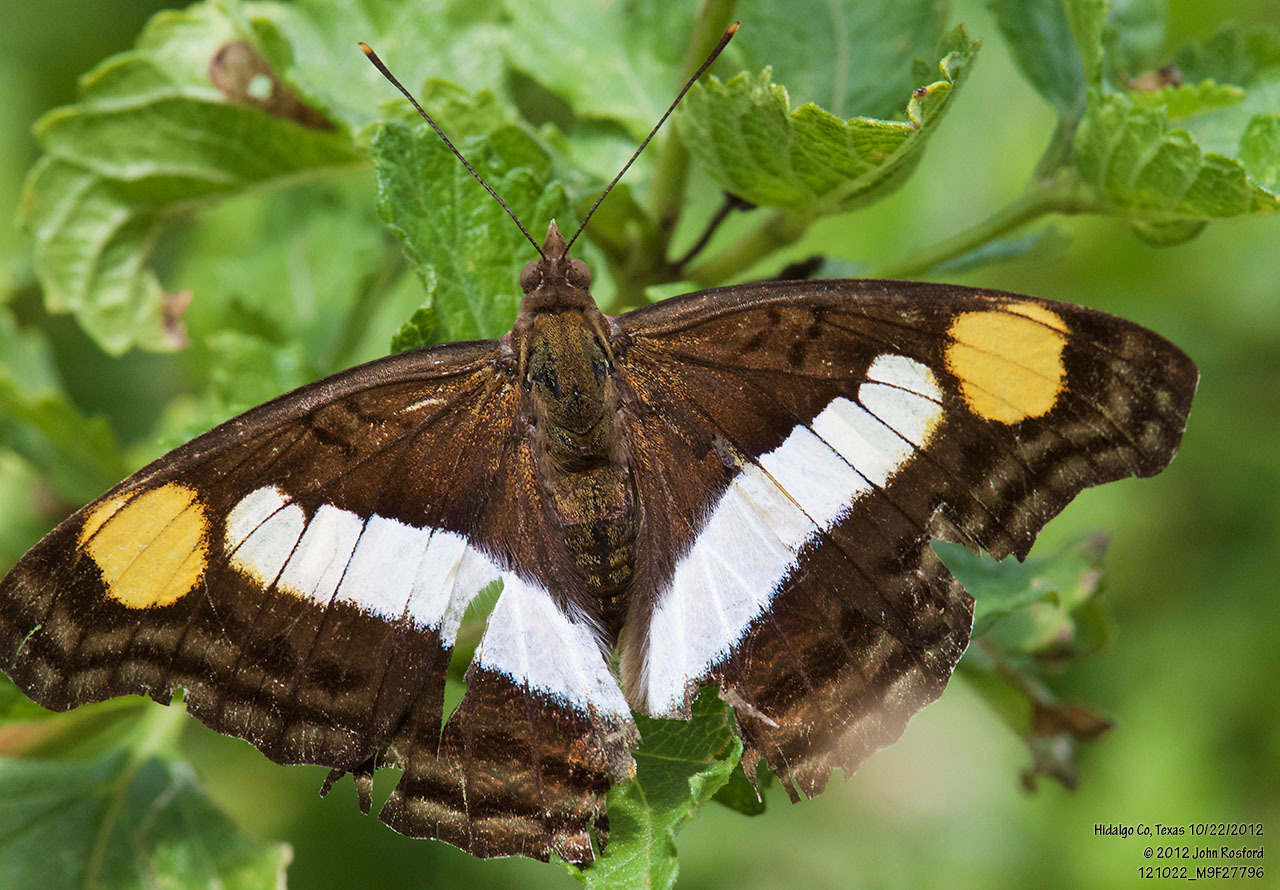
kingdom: Animalia
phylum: Arthropoda
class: Insecta
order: Lepidoptera
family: Nymphalidae
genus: Doxocopa
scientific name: Doxocopa laure
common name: Silver emperor
